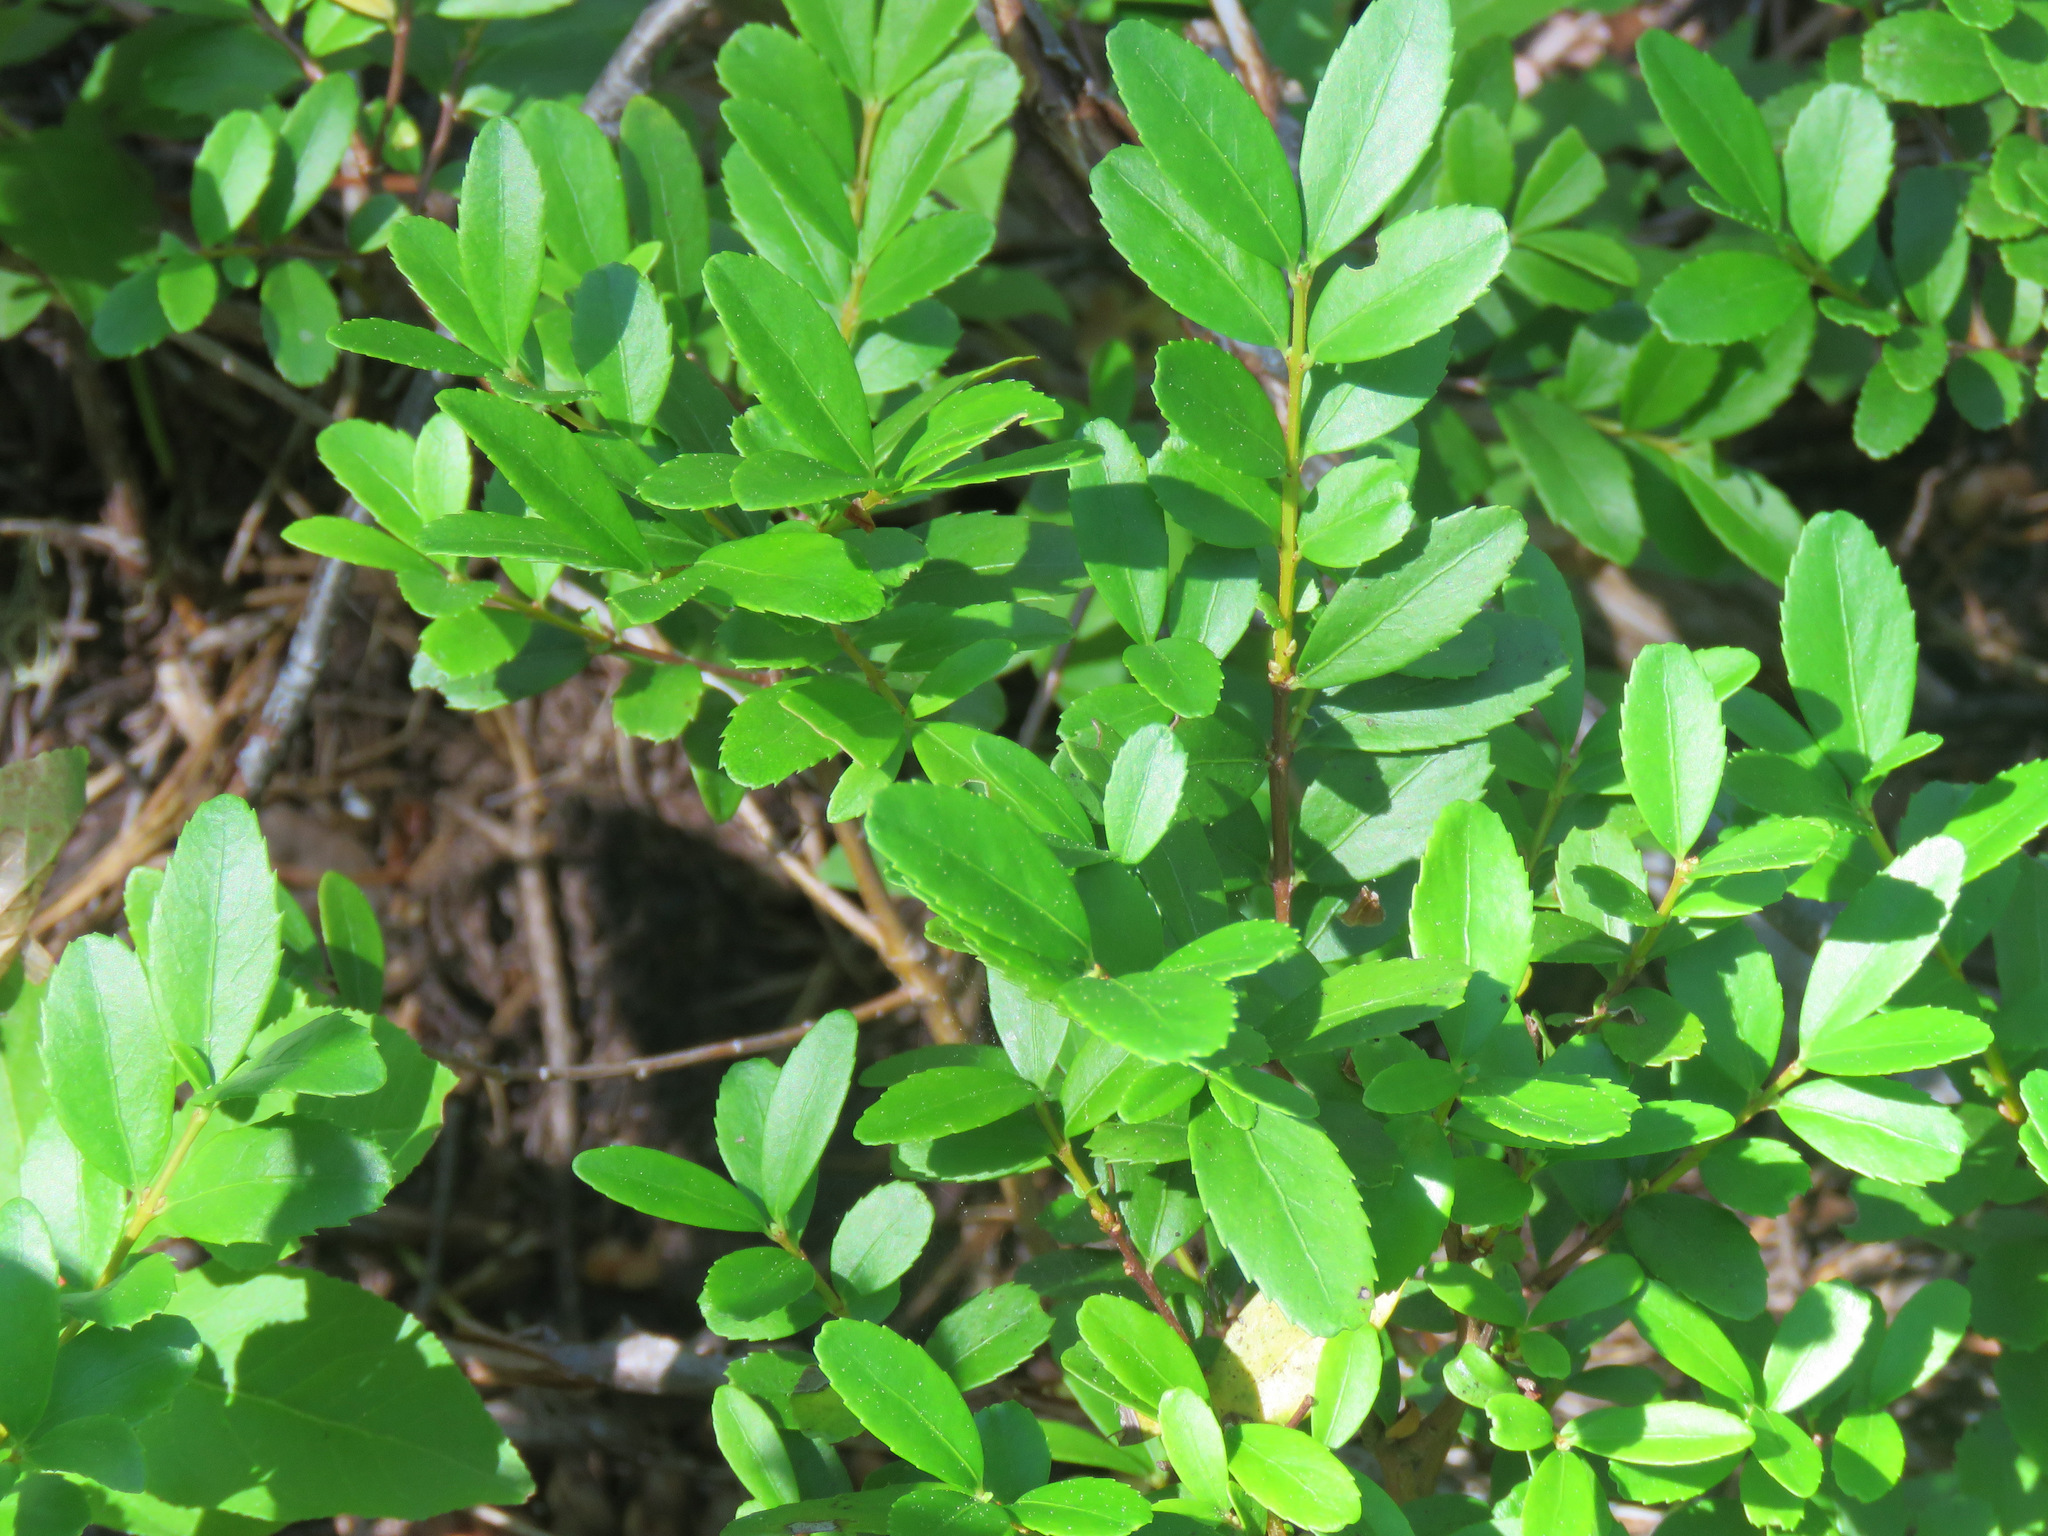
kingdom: Plantae
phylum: Tracheophyta
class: Magnoliopsida
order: Celastrales
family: Celastraceae
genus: Paxistima
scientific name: Paxistima myrsinites
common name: Mountain-lover
